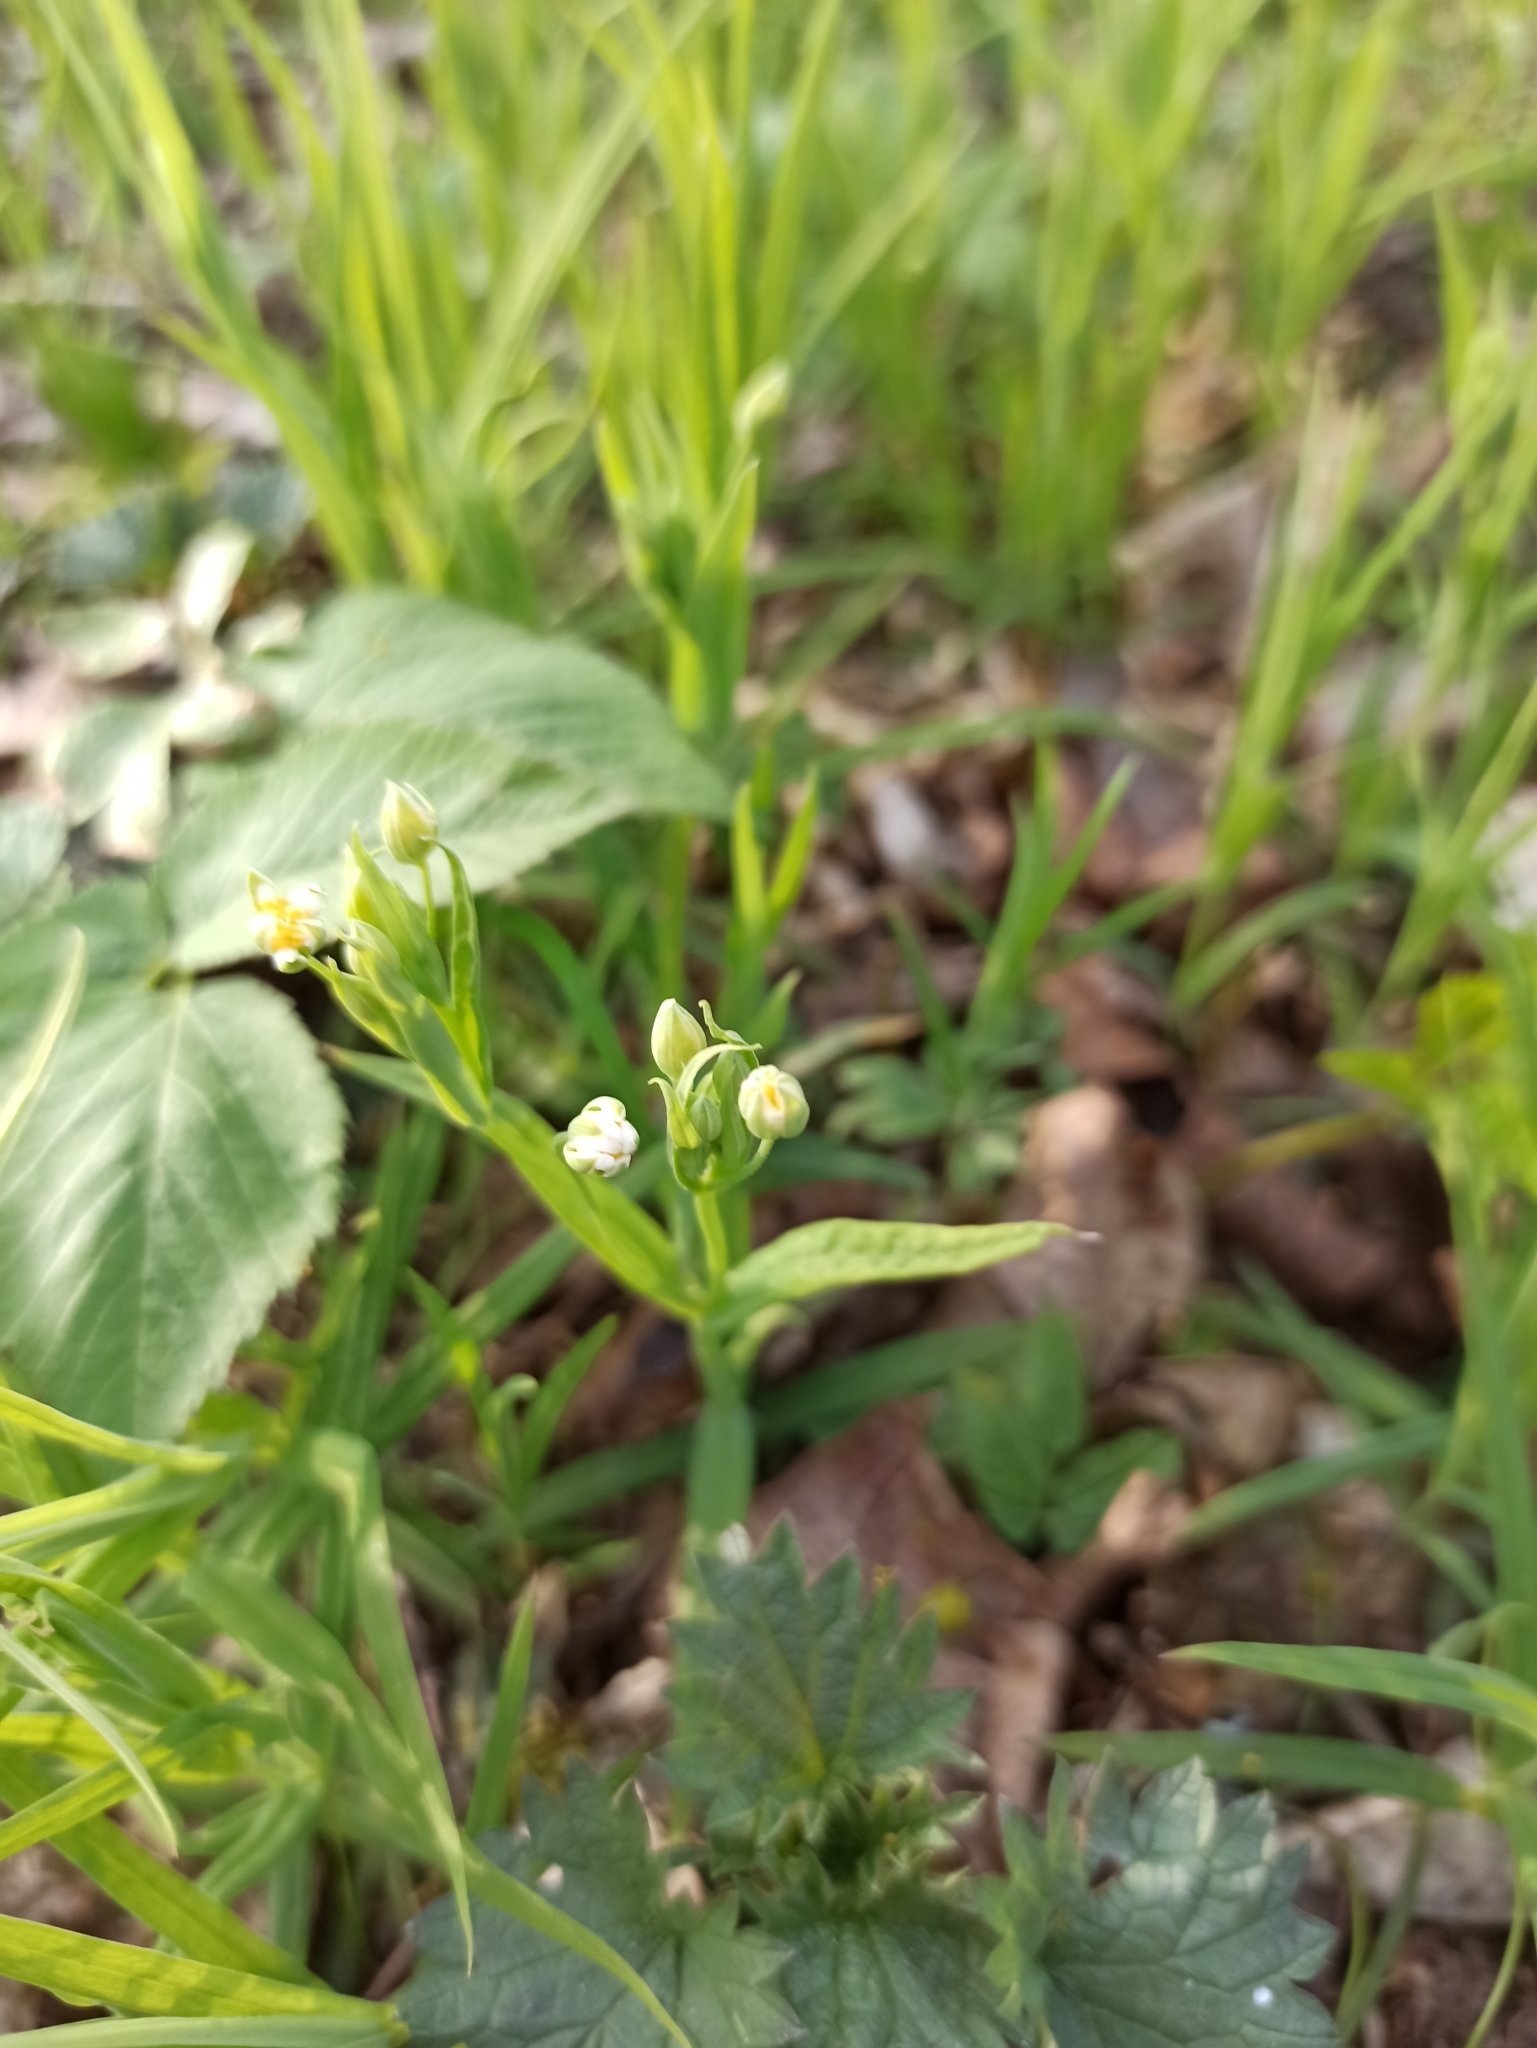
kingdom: Plantae
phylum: Tracheophyta
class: Magnoliopsida
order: Caryophyllales
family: Caryophyllaceae
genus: Rabelera
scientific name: Rabelera holostea
